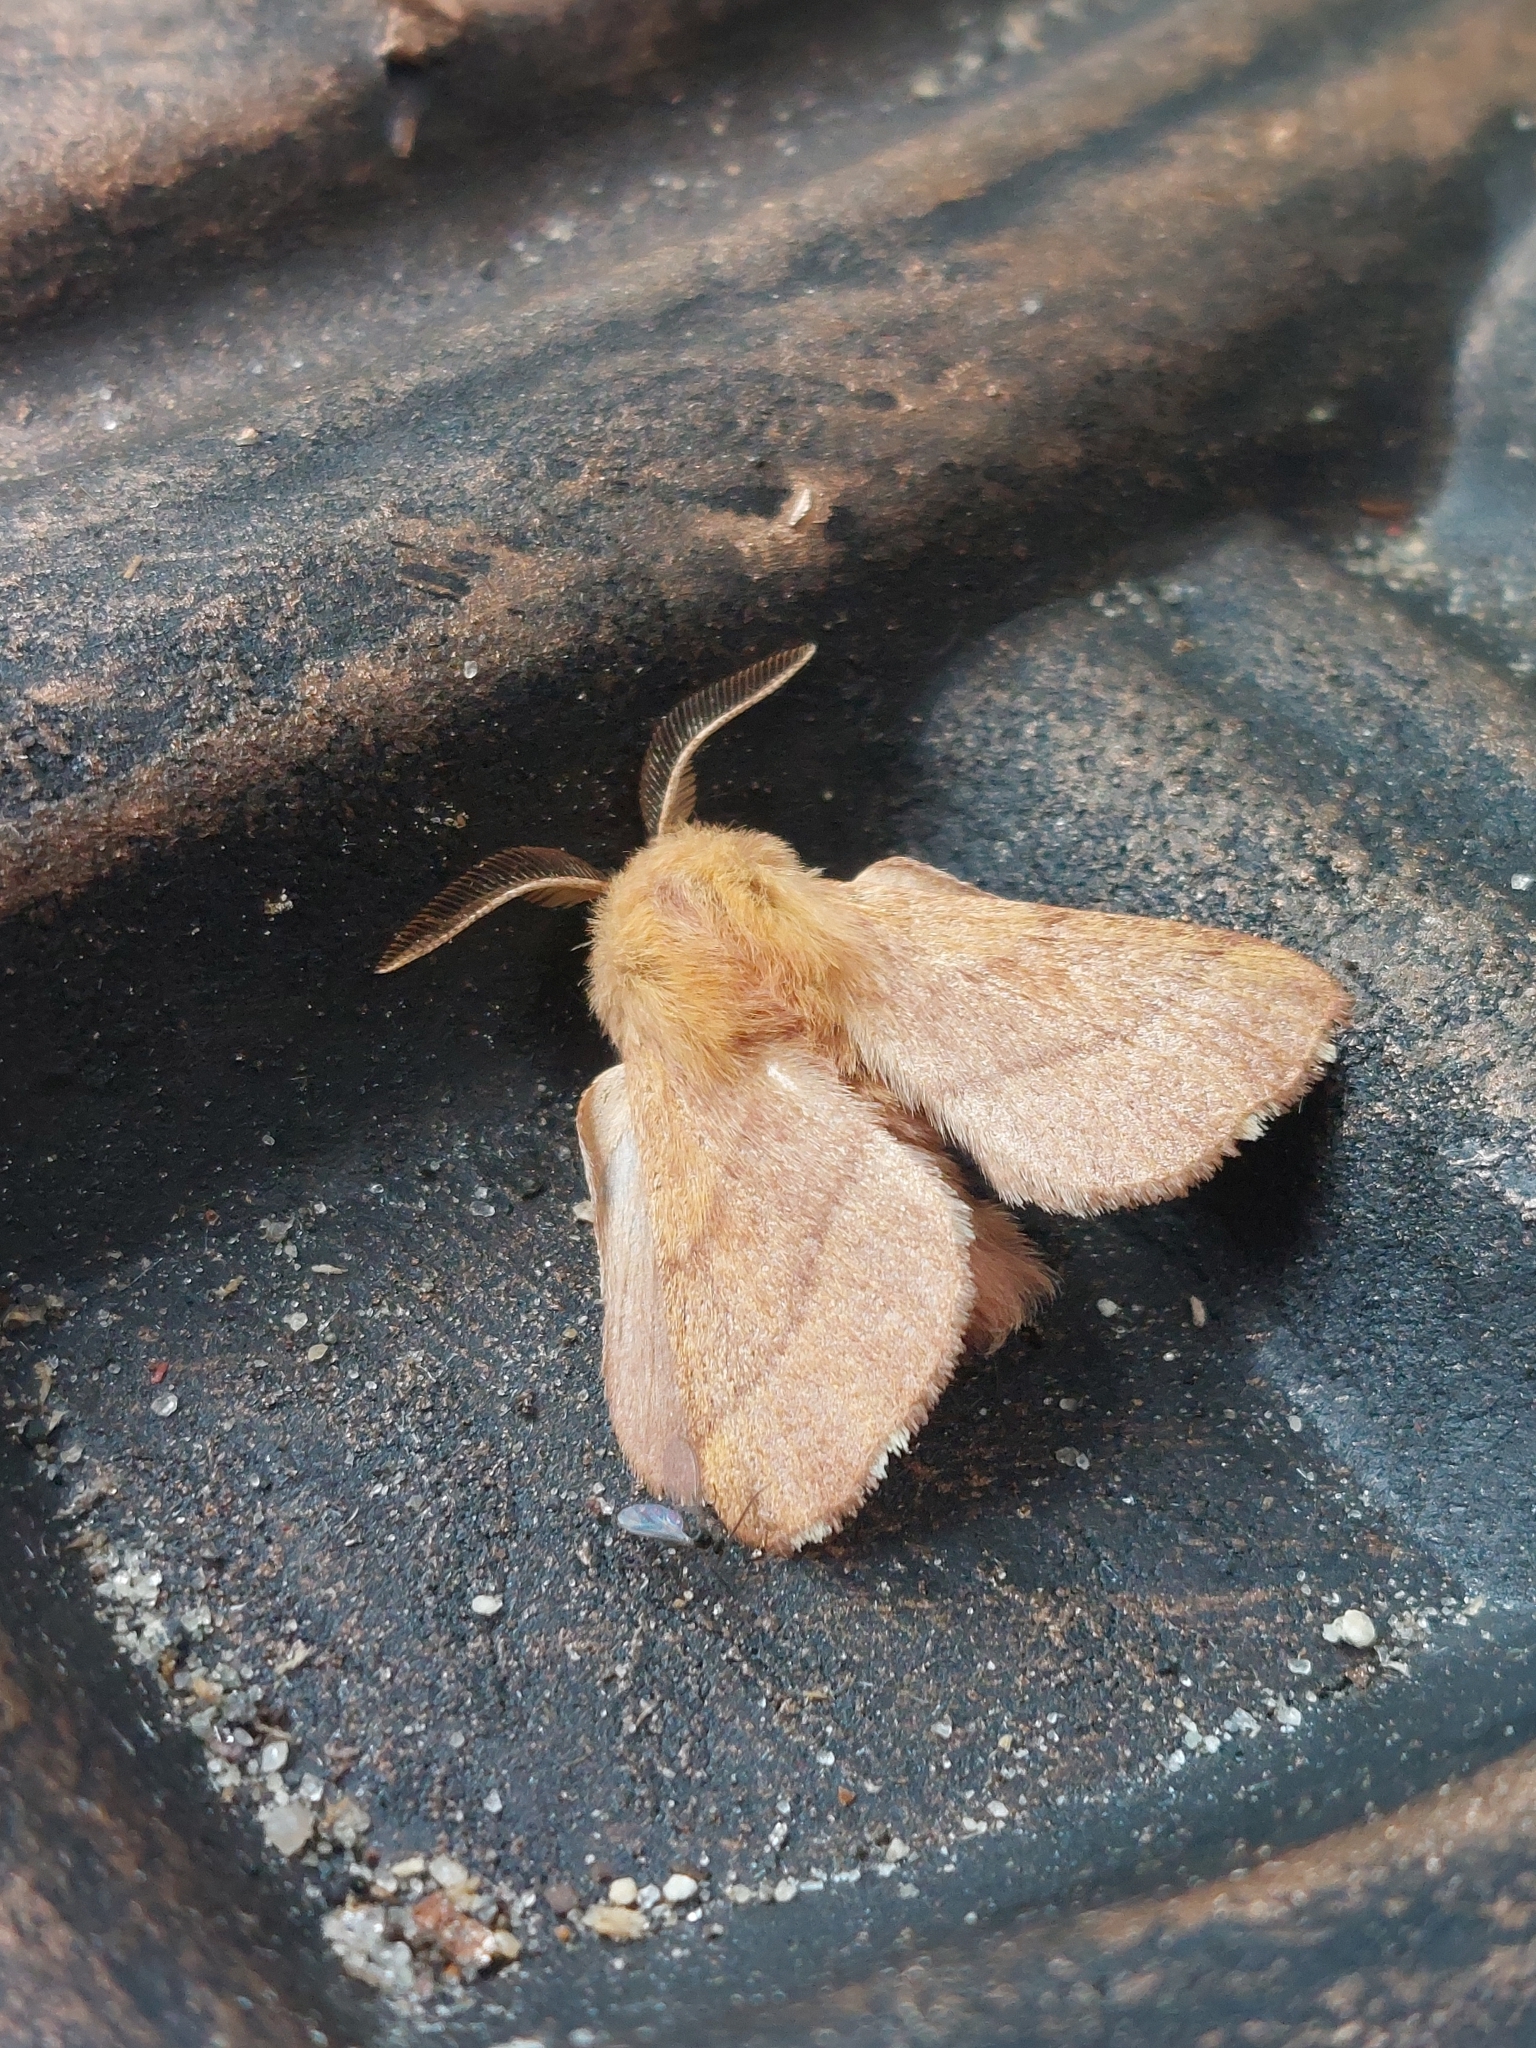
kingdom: Animalia
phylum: Arthropoda
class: Insecta
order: Lepidoptera
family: Lasiocampidae
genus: Malacosoma
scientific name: Malacosoma disstria
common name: Forest tent caterpillar
